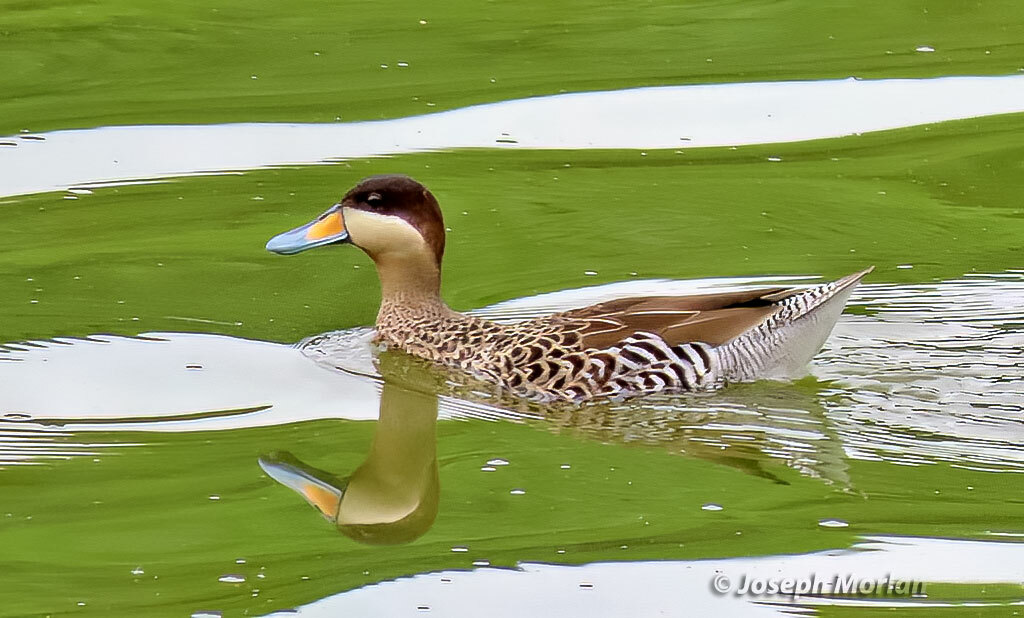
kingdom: Animalia
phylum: Chordata
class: Aves
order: Anseriformes
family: Anatidae
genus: Spatula
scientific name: Spatula versicolor
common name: Silver teal
